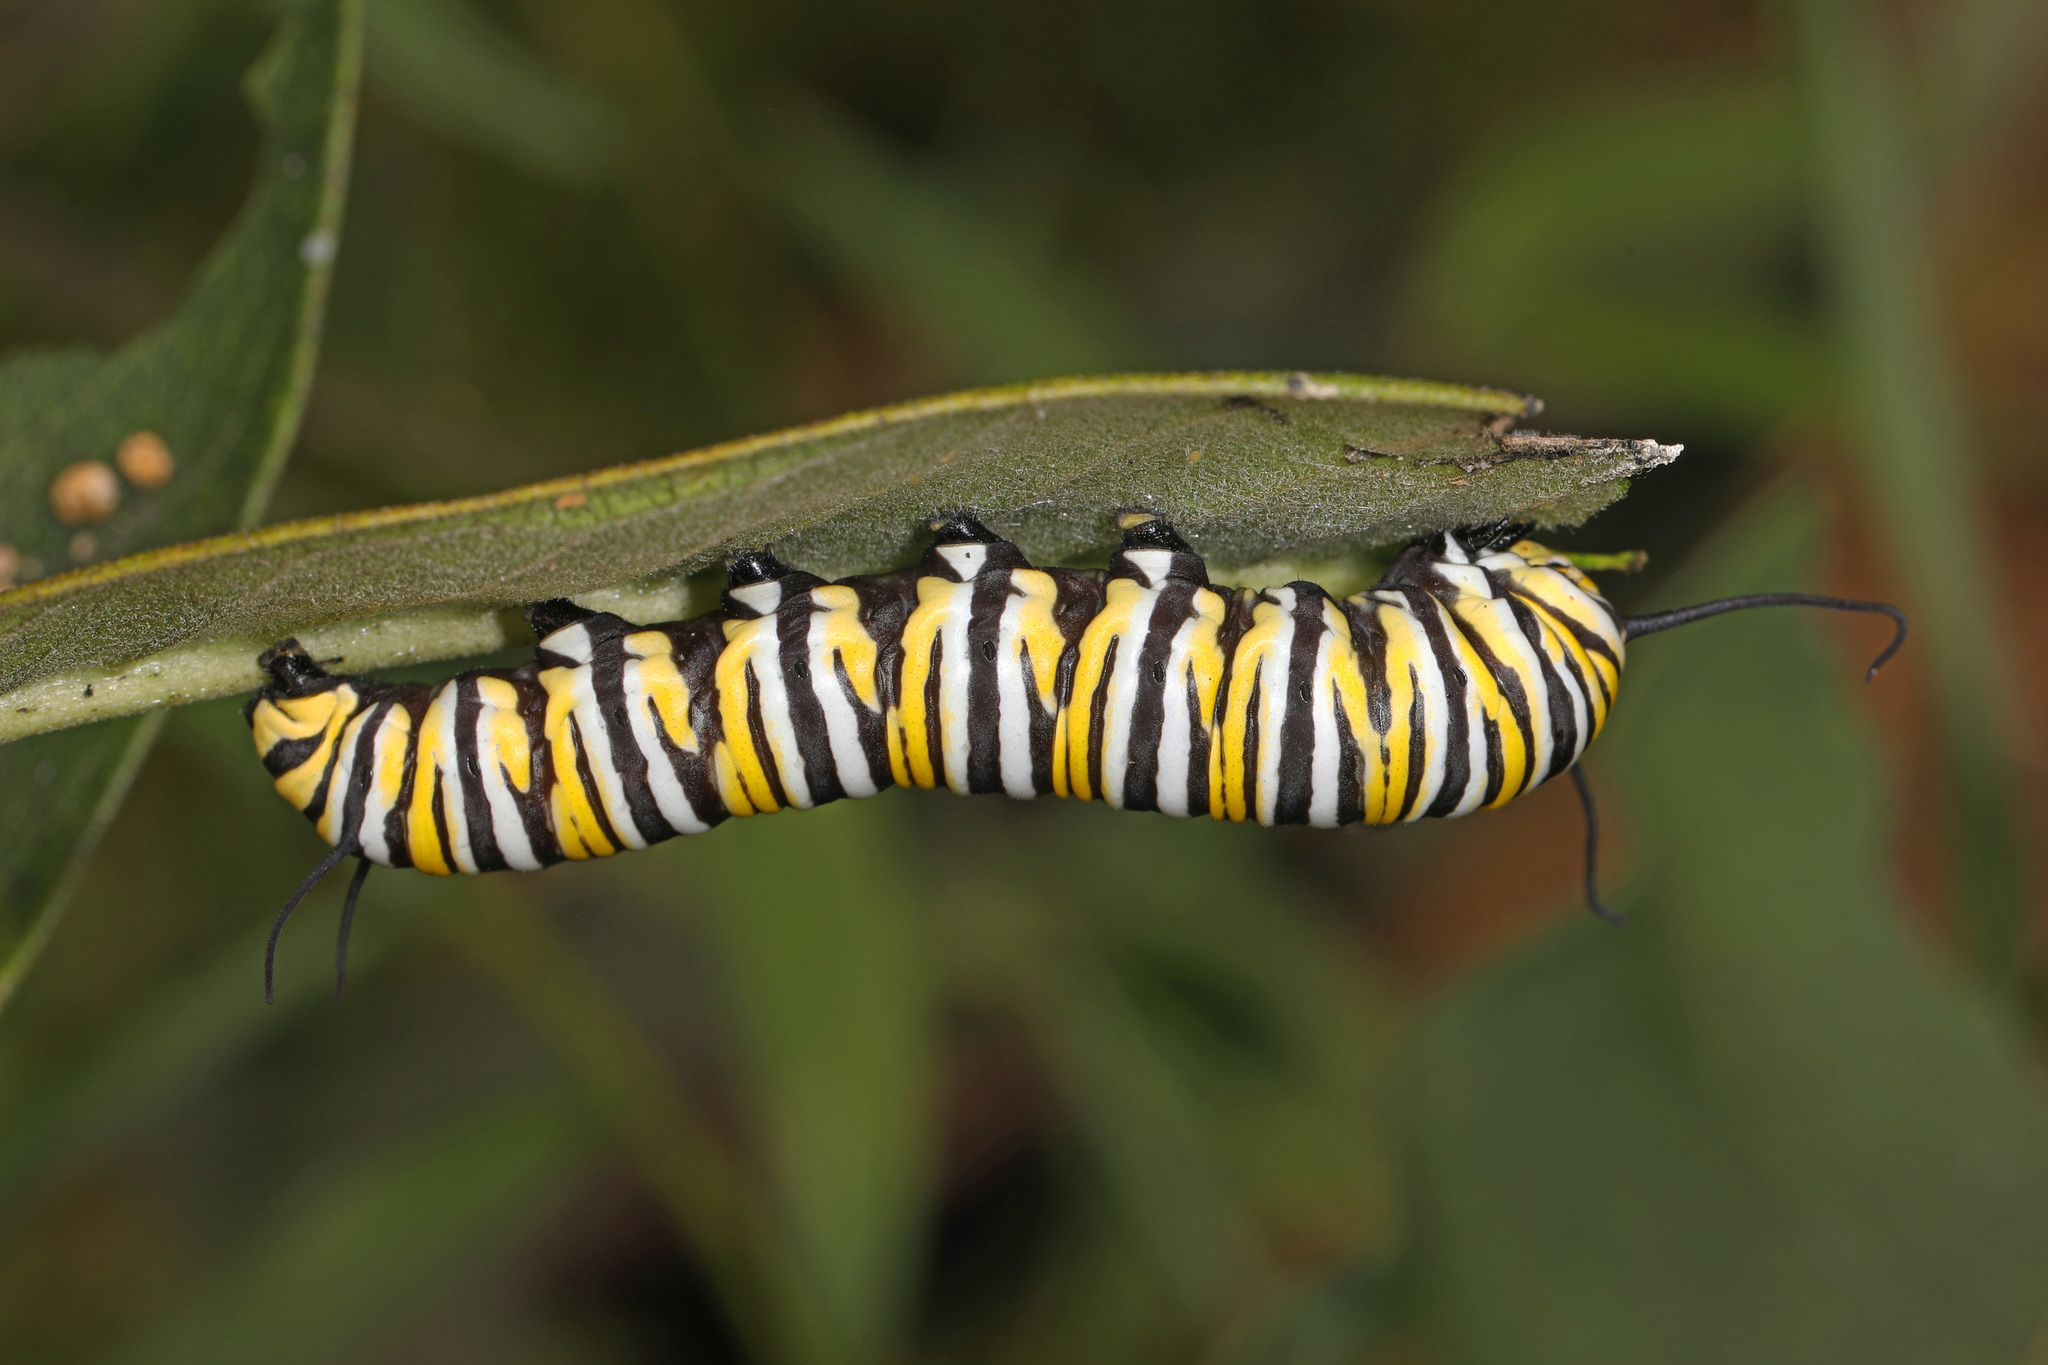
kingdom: Animalia
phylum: Arthropoda
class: Insecta
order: Lepidoptera
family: Nymphalidae
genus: Danaus
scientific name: Danaus plexippus
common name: Monarch
